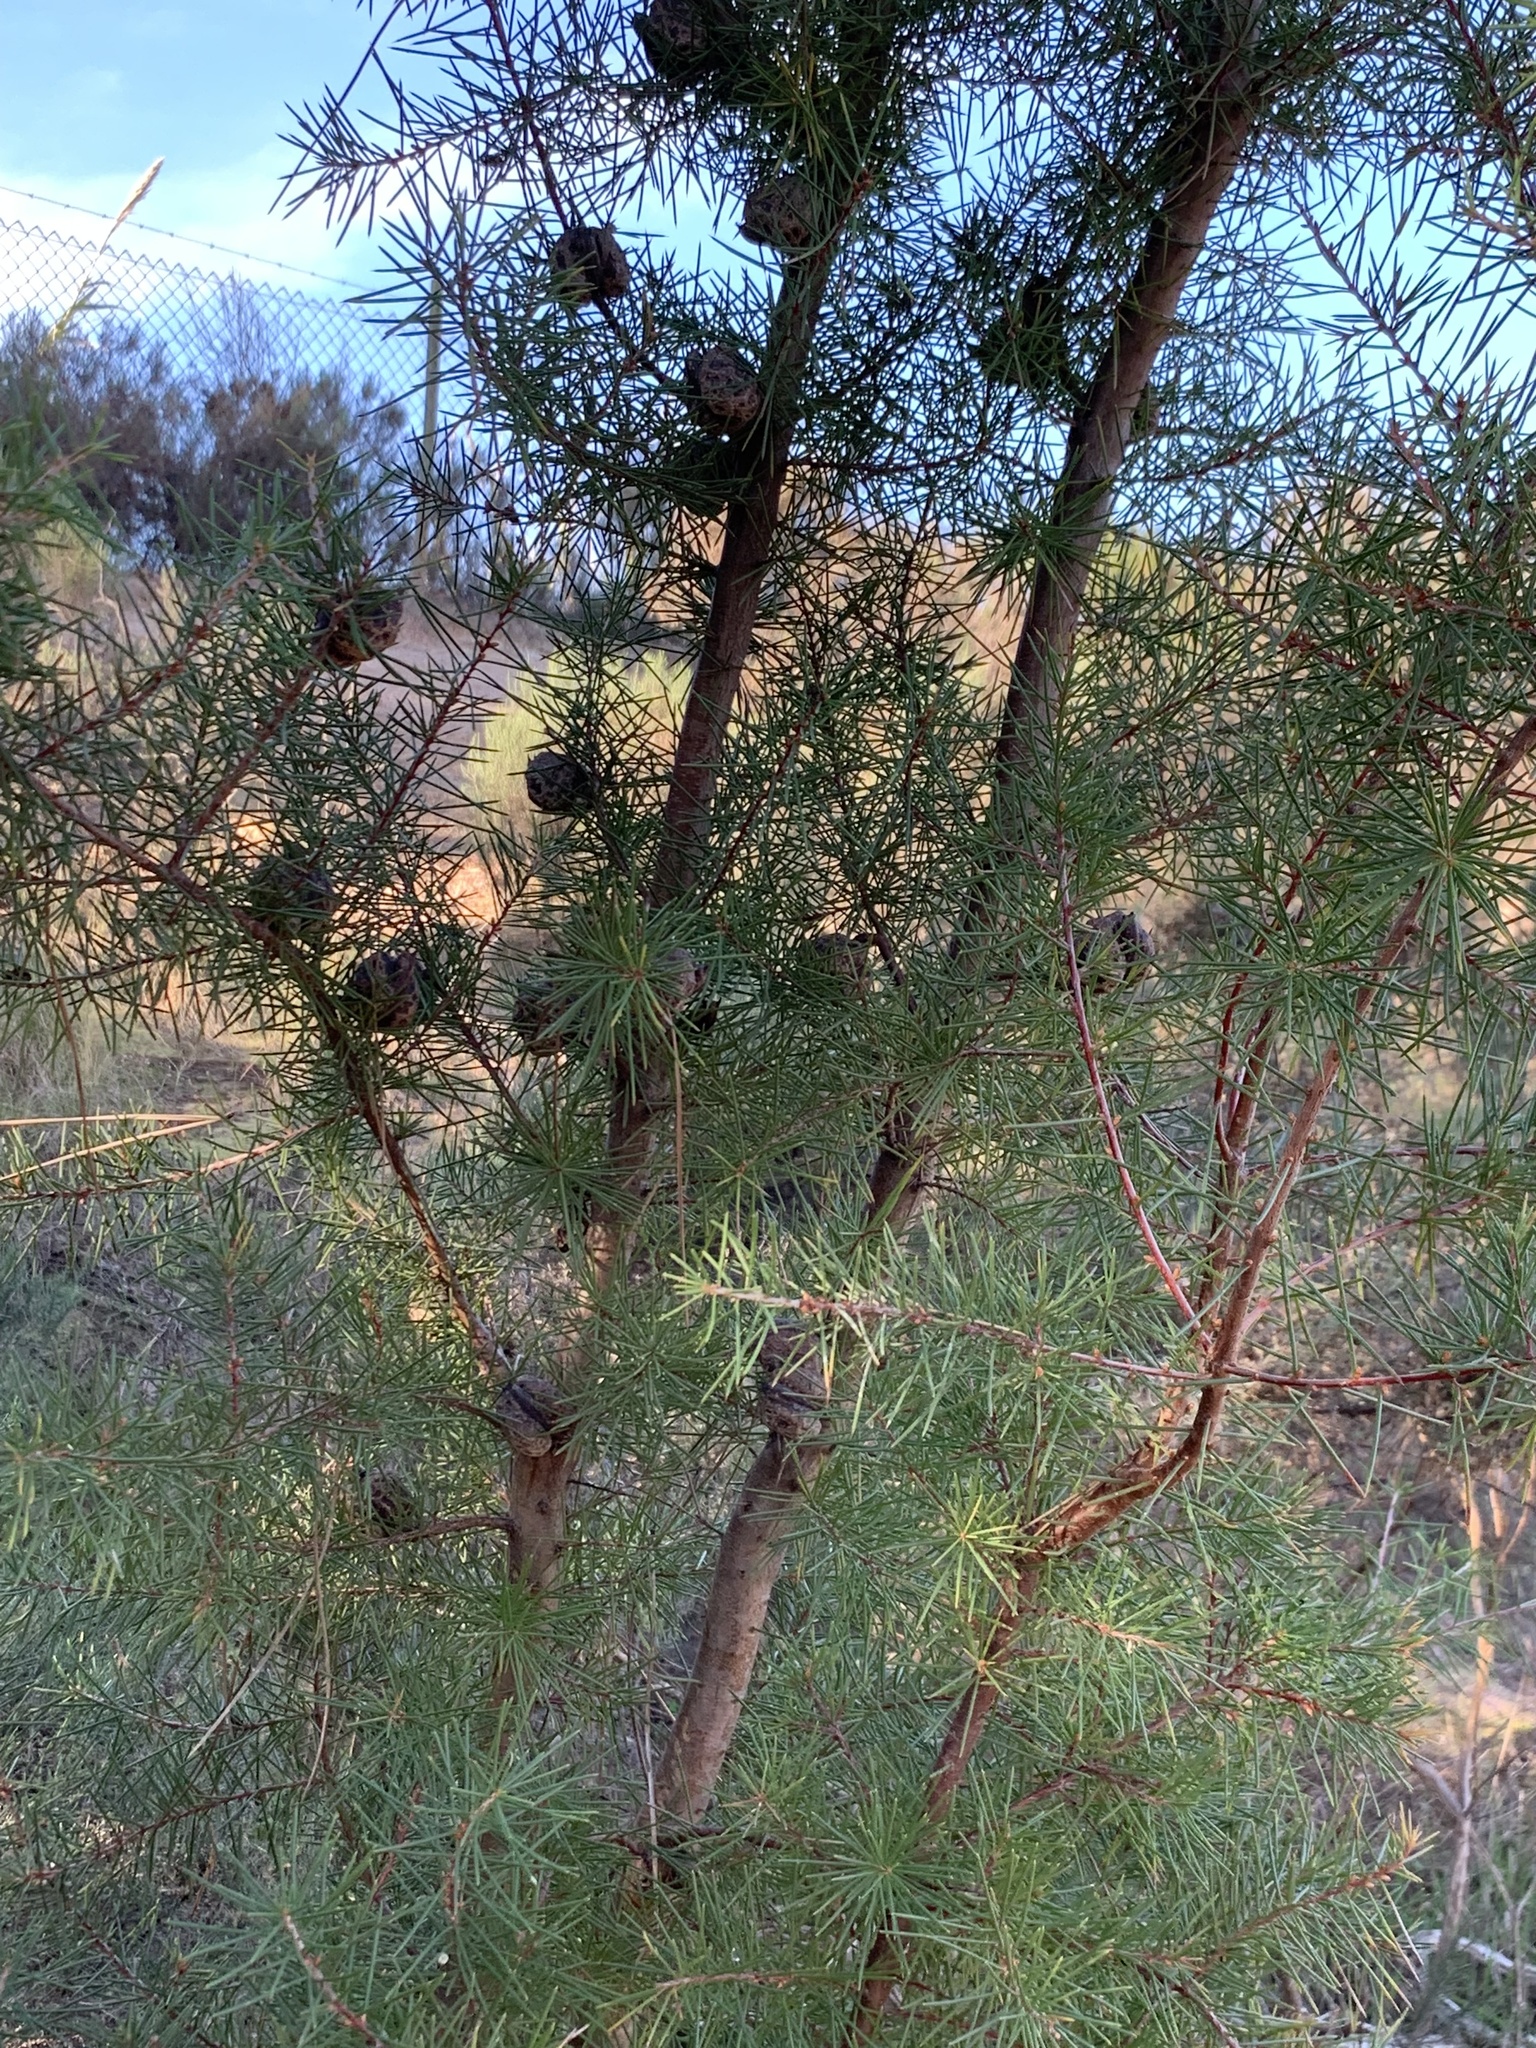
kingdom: Plantae
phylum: Tracheophyta
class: Magnoliopsida
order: Proteales
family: Proteaceae
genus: Hakea
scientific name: Hakea sericea
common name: Needle bush
